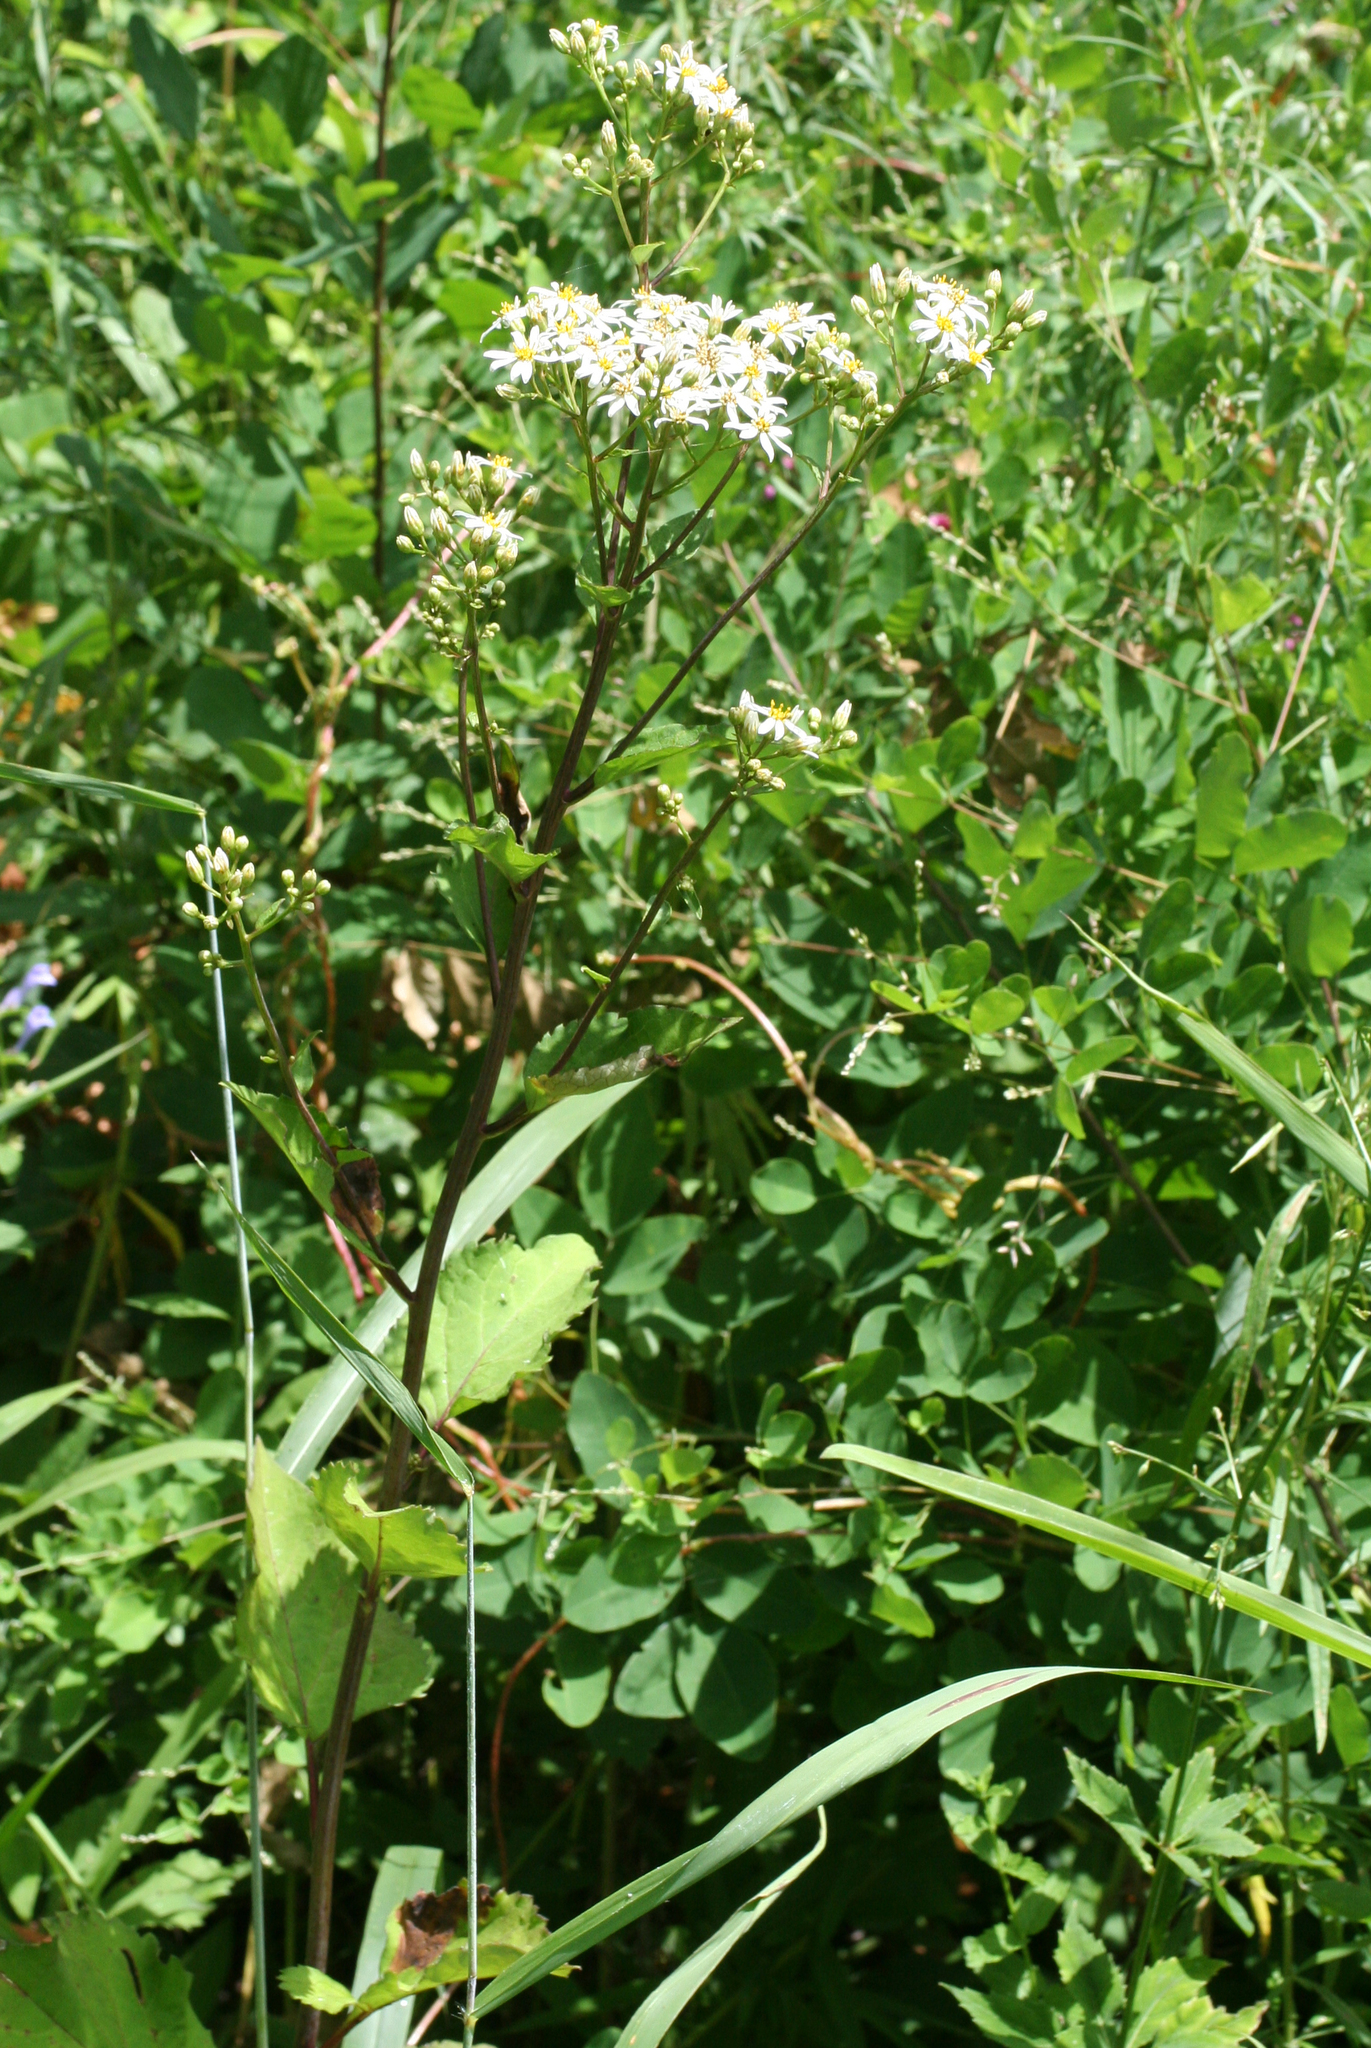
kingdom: Plantae
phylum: Tracheophyta
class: Magnoliopsida
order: Asterales
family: Asteraceae
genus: Aster
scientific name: Aster scaber
